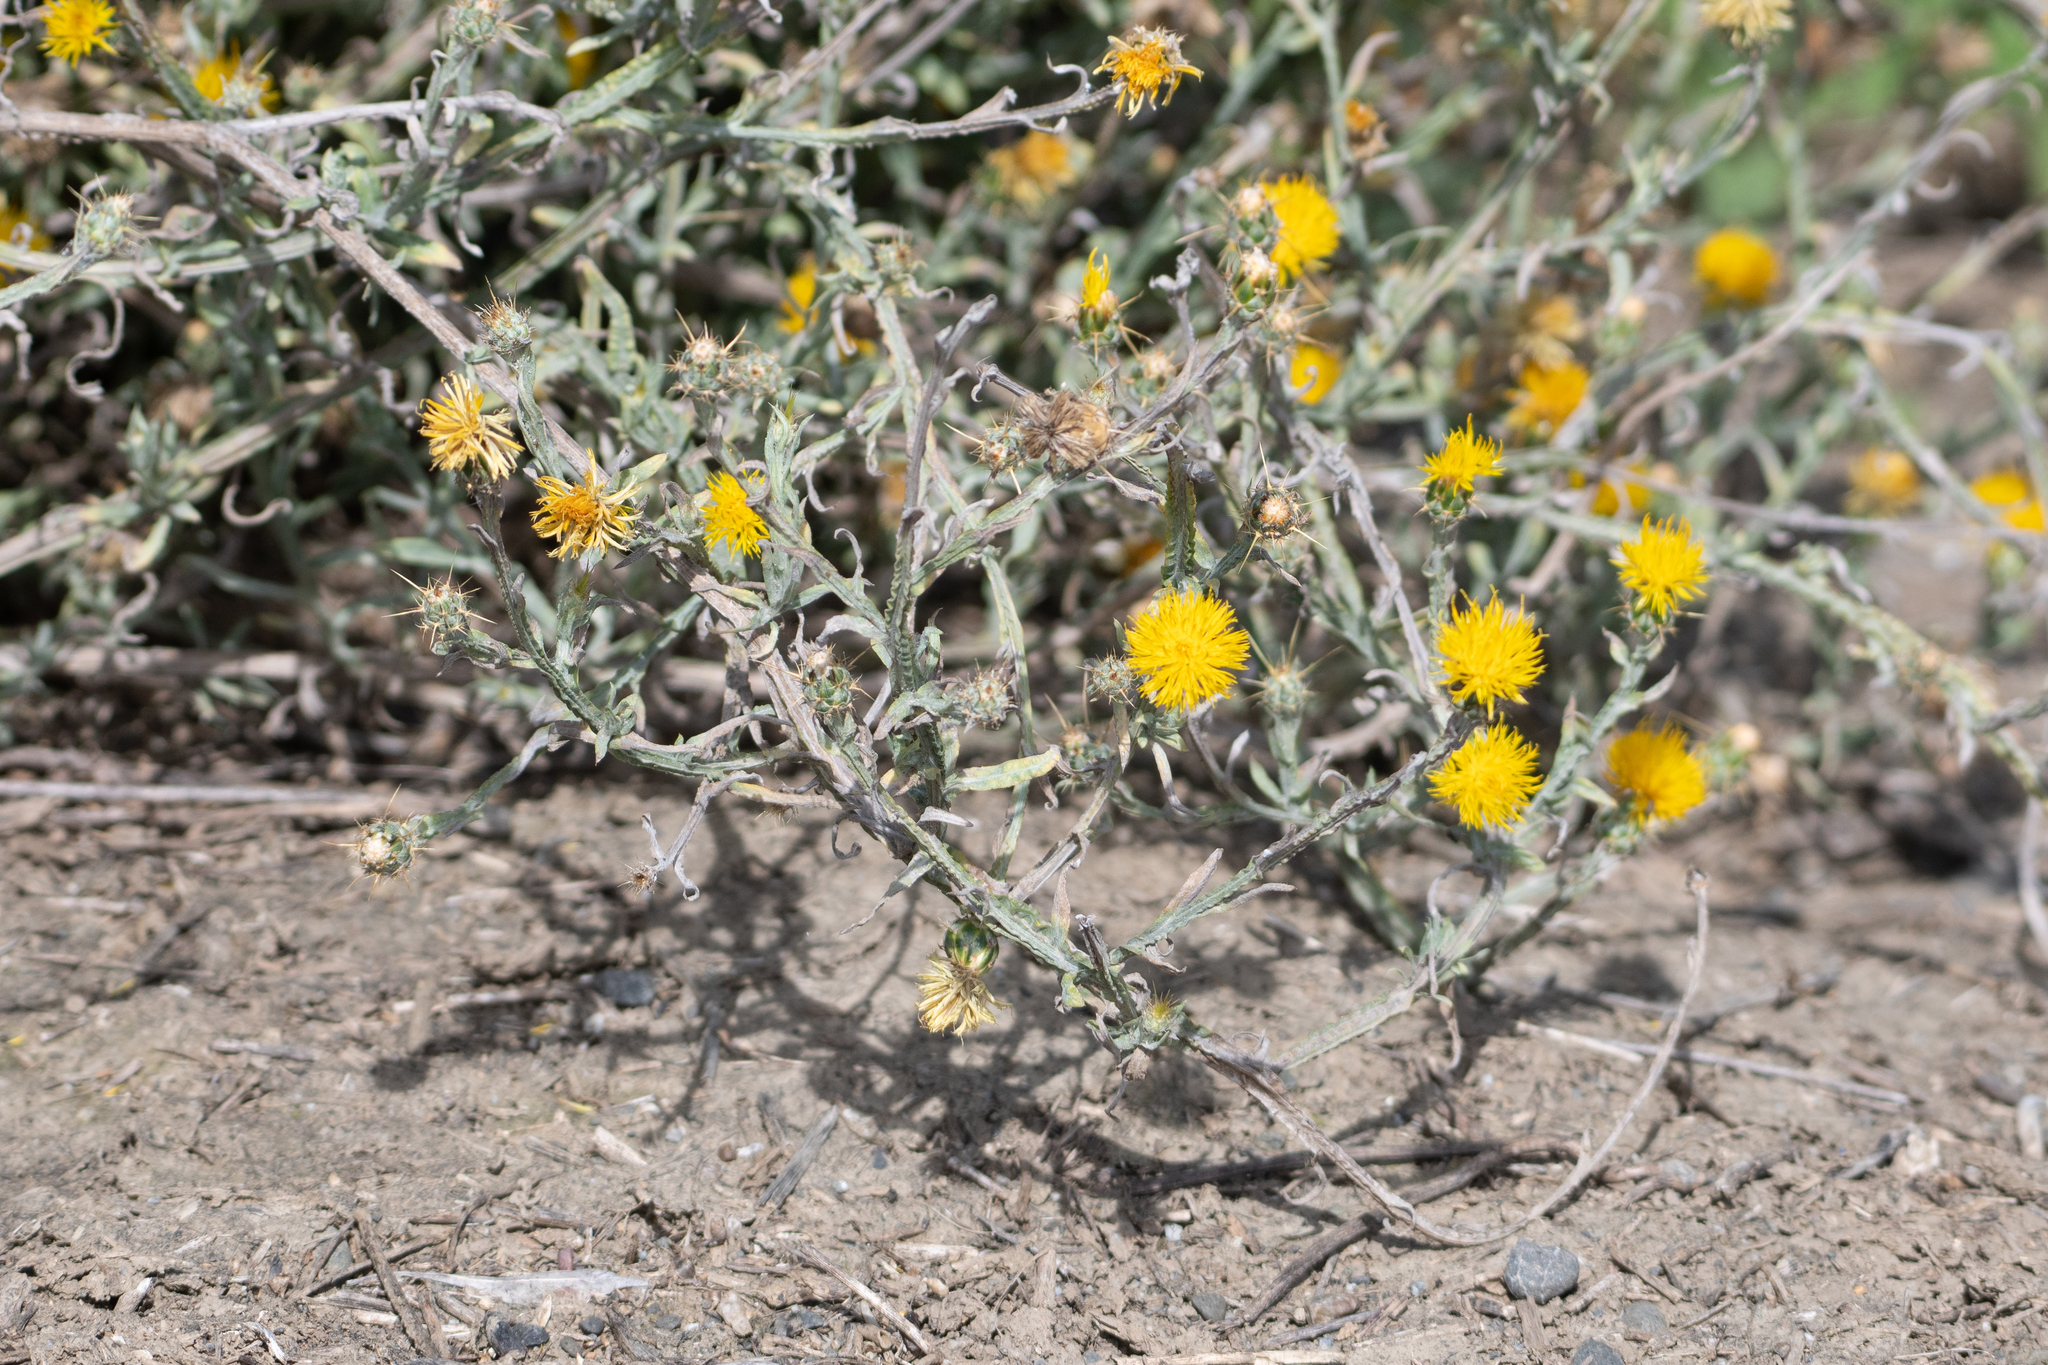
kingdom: Plantae
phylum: Tracheophyta
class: Magnoliopsida
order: Asterales
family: Asteraceae
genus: Centaurea
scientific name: Centaurea solstitialis
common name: Yellow star-thistle
